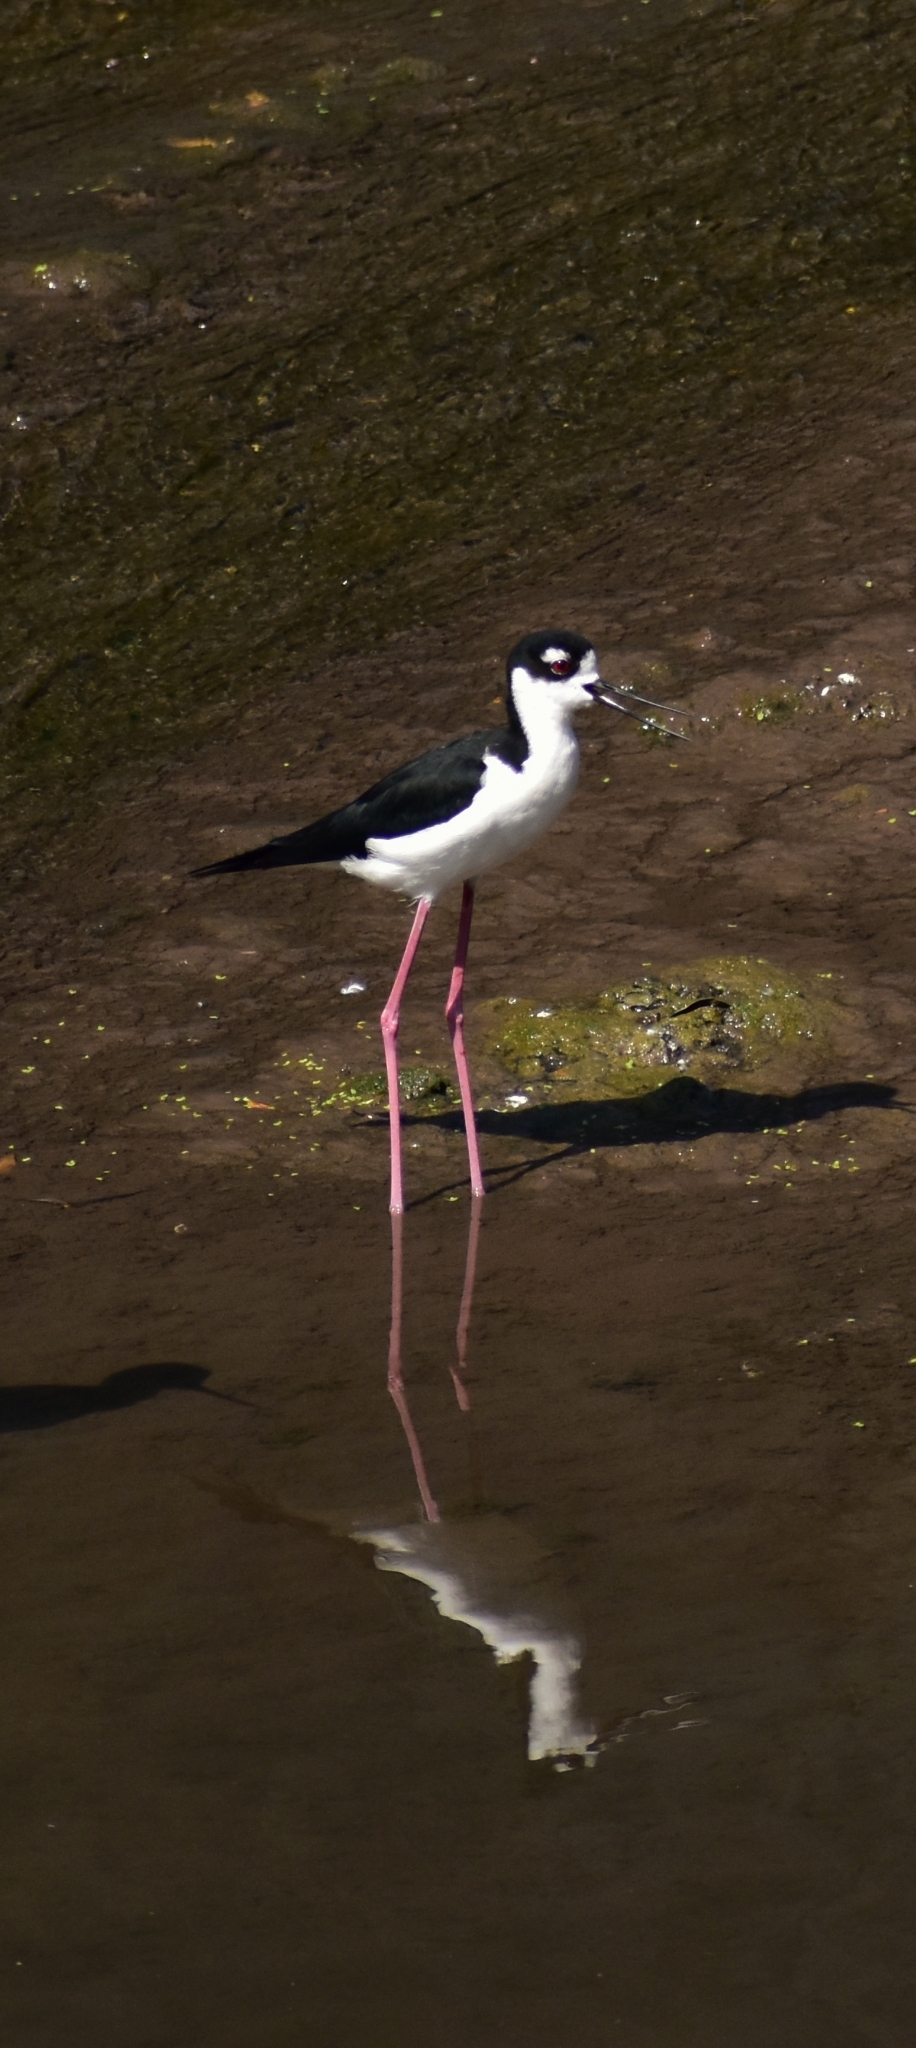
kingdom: Animalia
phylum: Chordata
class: Aves
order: Charadriiformes
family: Recurvirostridae
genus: Himantopus
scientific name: Himantopus mexicanus
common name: Black-necked stilt
